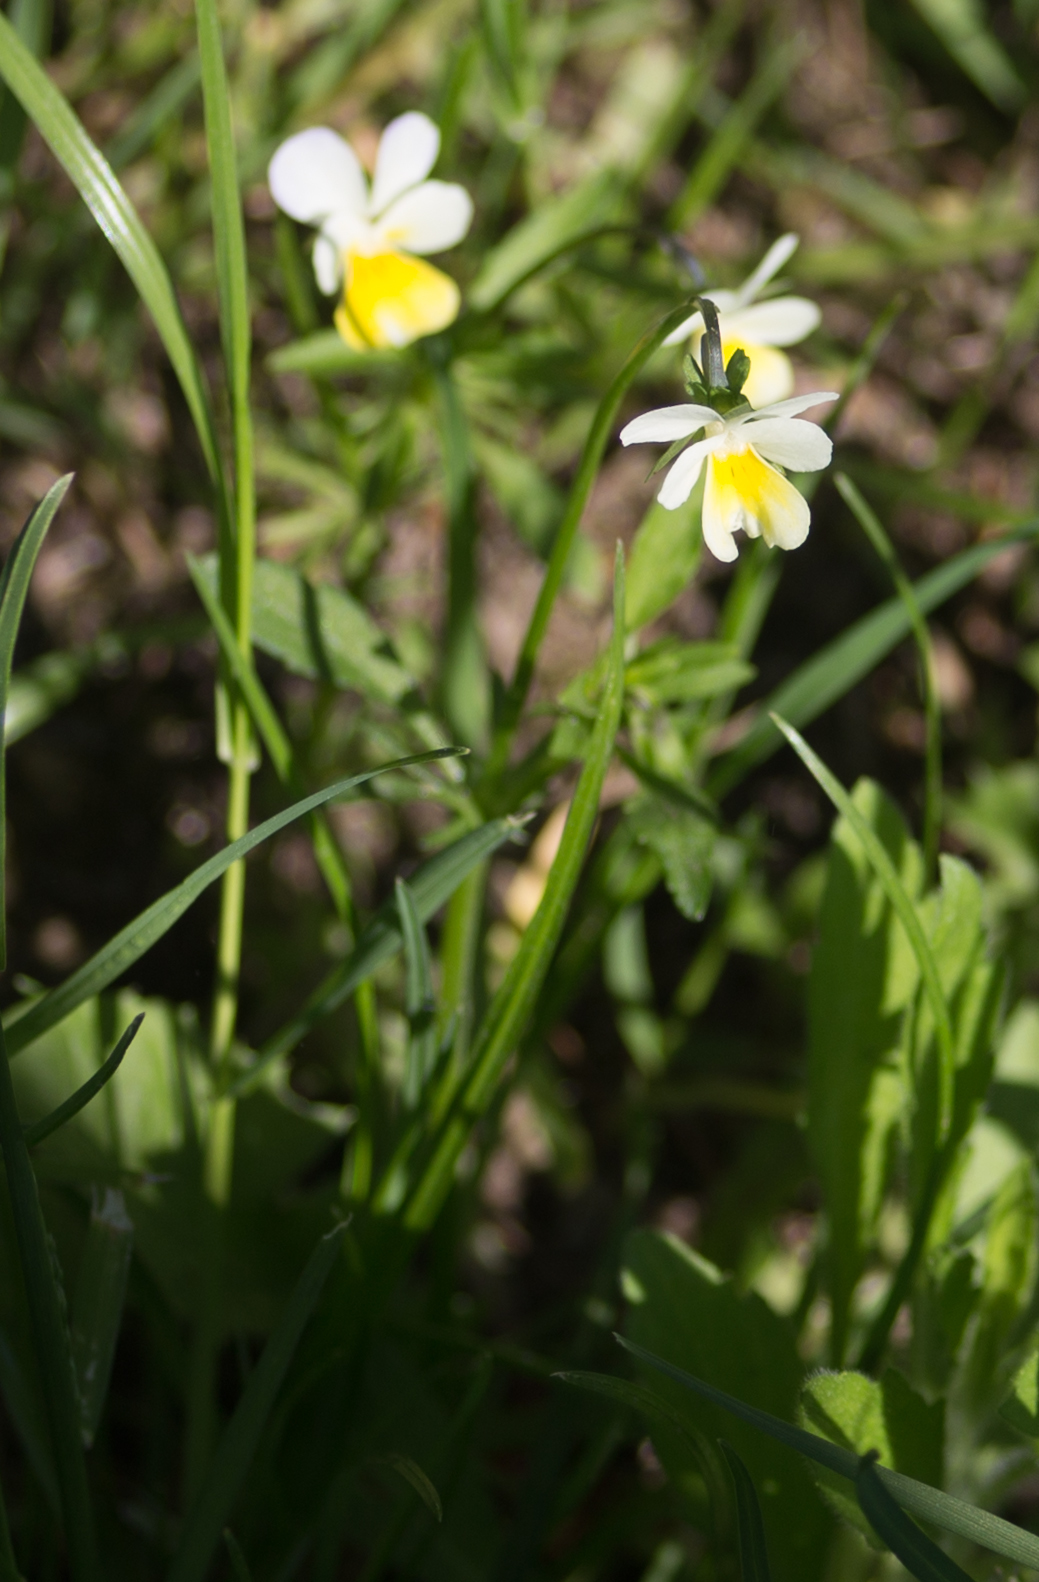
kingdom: Plantae
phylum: Tracheophyta
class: Magnoliopsida
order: Malpighiales
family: Violaceae
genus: Viola
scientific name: Viola arvensis
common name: Field pansy
